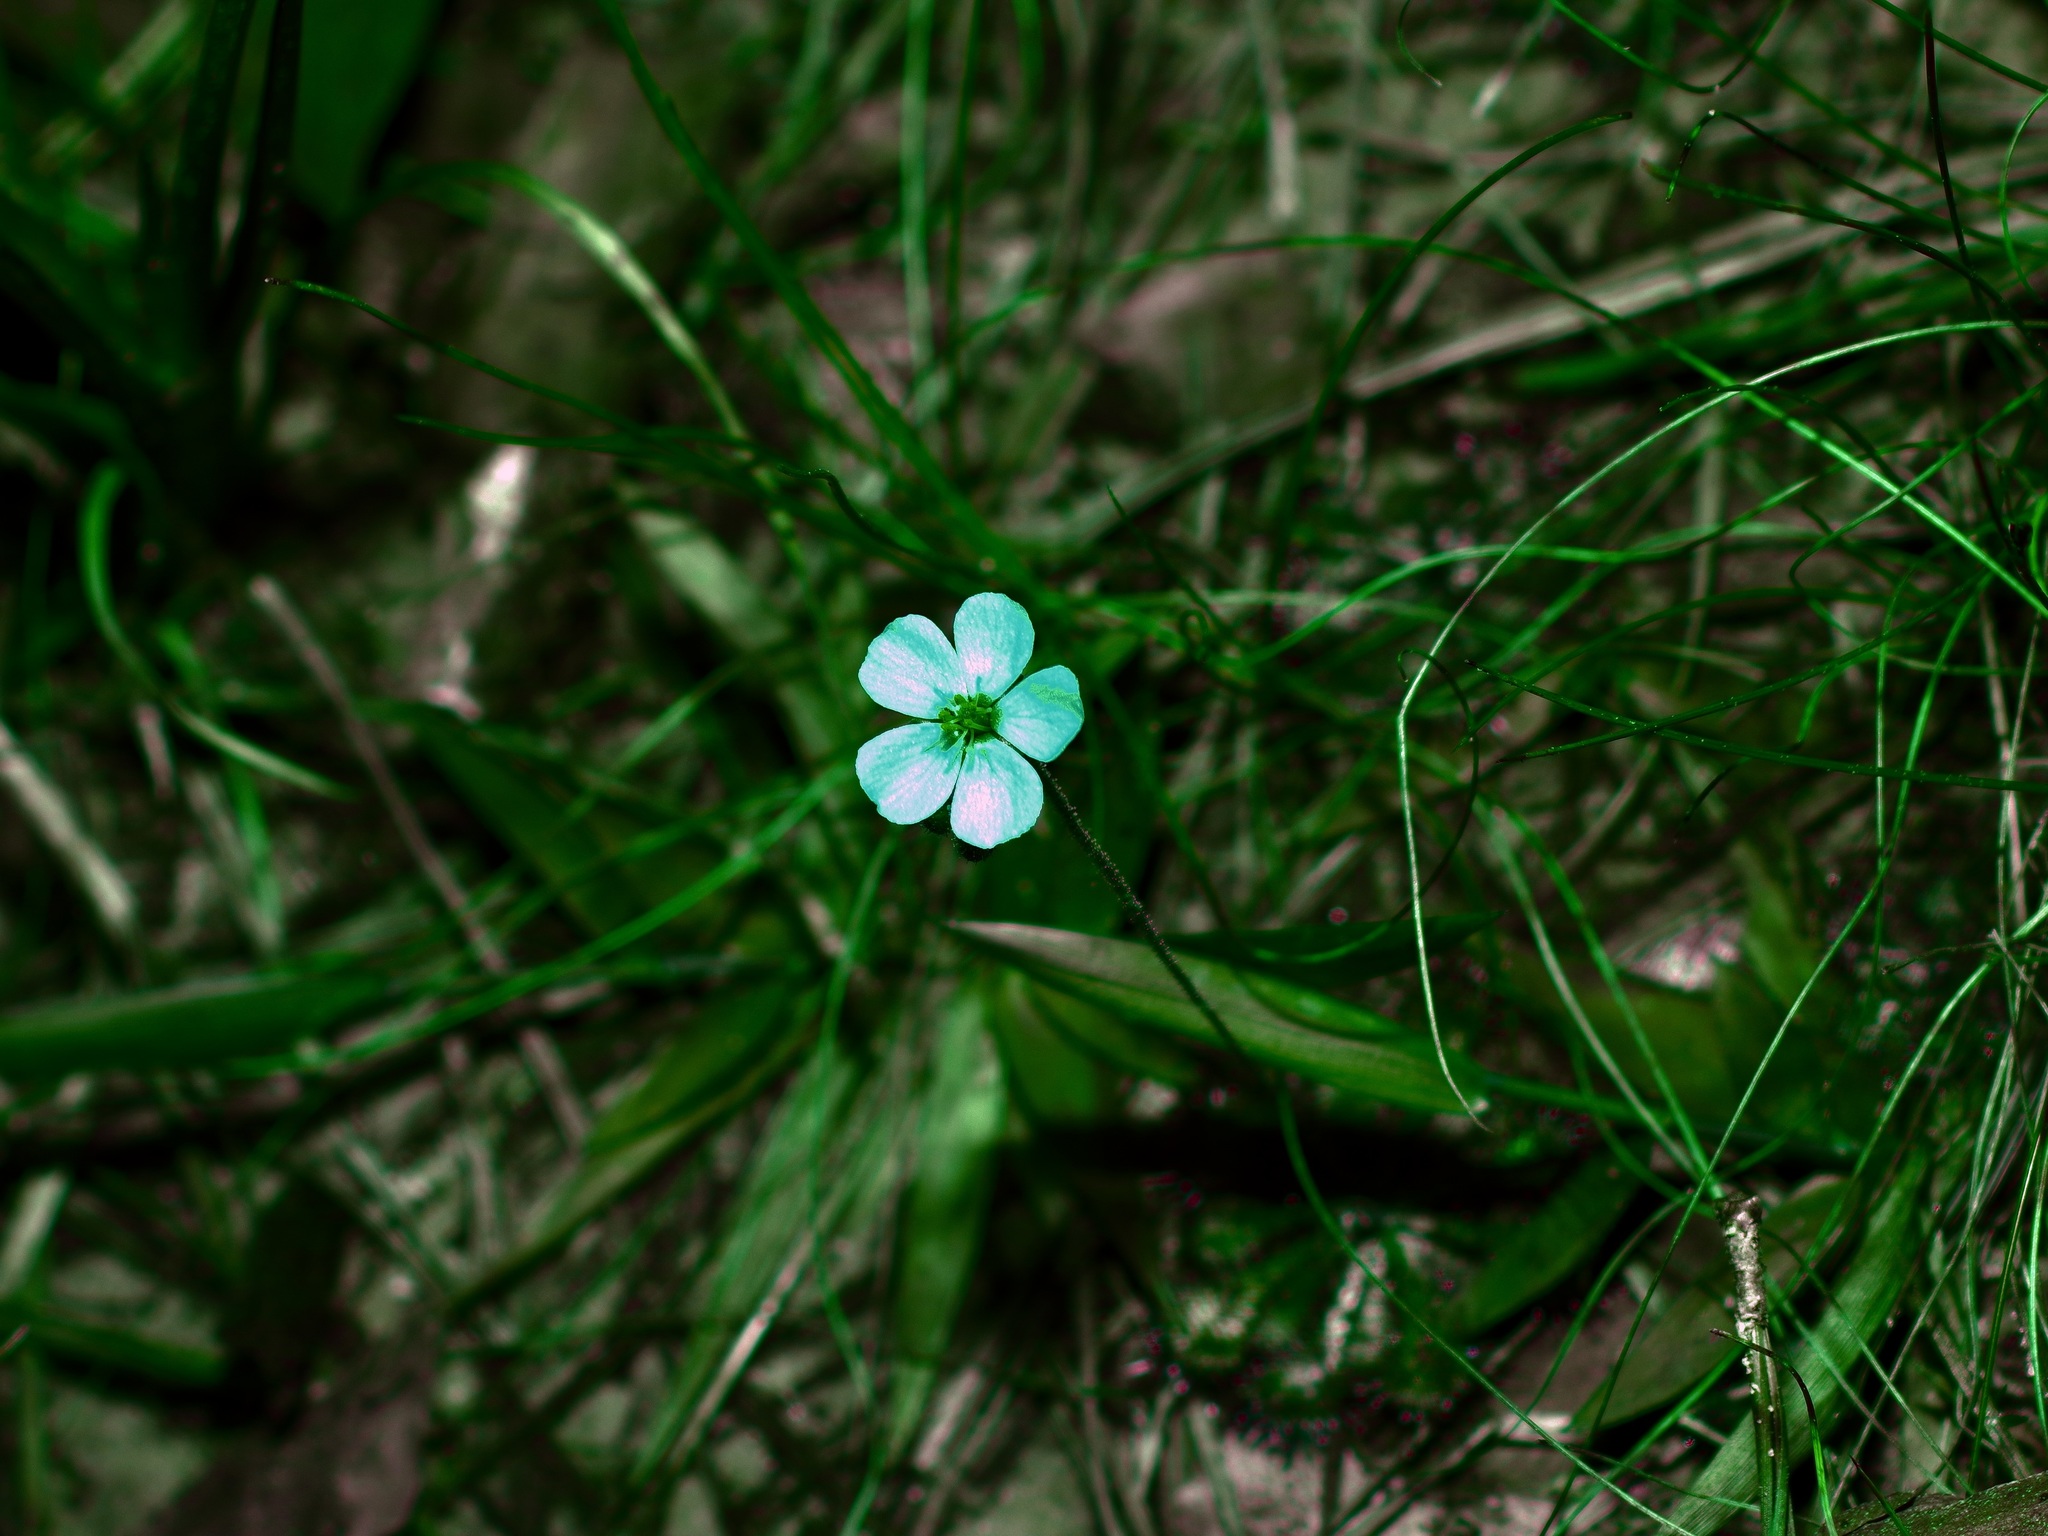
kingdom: Plantae
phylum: Tracheophyta
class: Magnoliopsida
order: Caryophyllales
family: Droseraceae
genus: Drosera
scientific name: Drosera brevifolia
